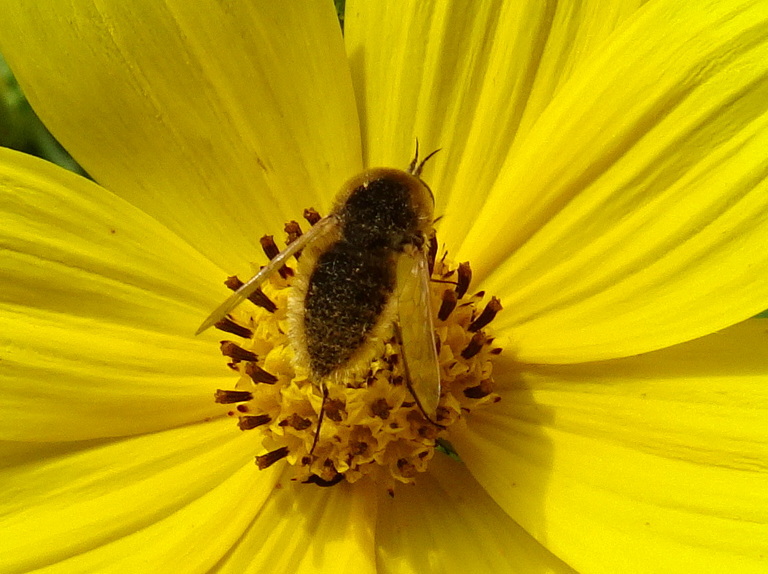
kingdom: Animalia
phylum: Arthropoda
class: Insecta
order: Diptera
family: Bombyliidae
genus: Sparnopolius
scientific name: Sparnopolius confusus
